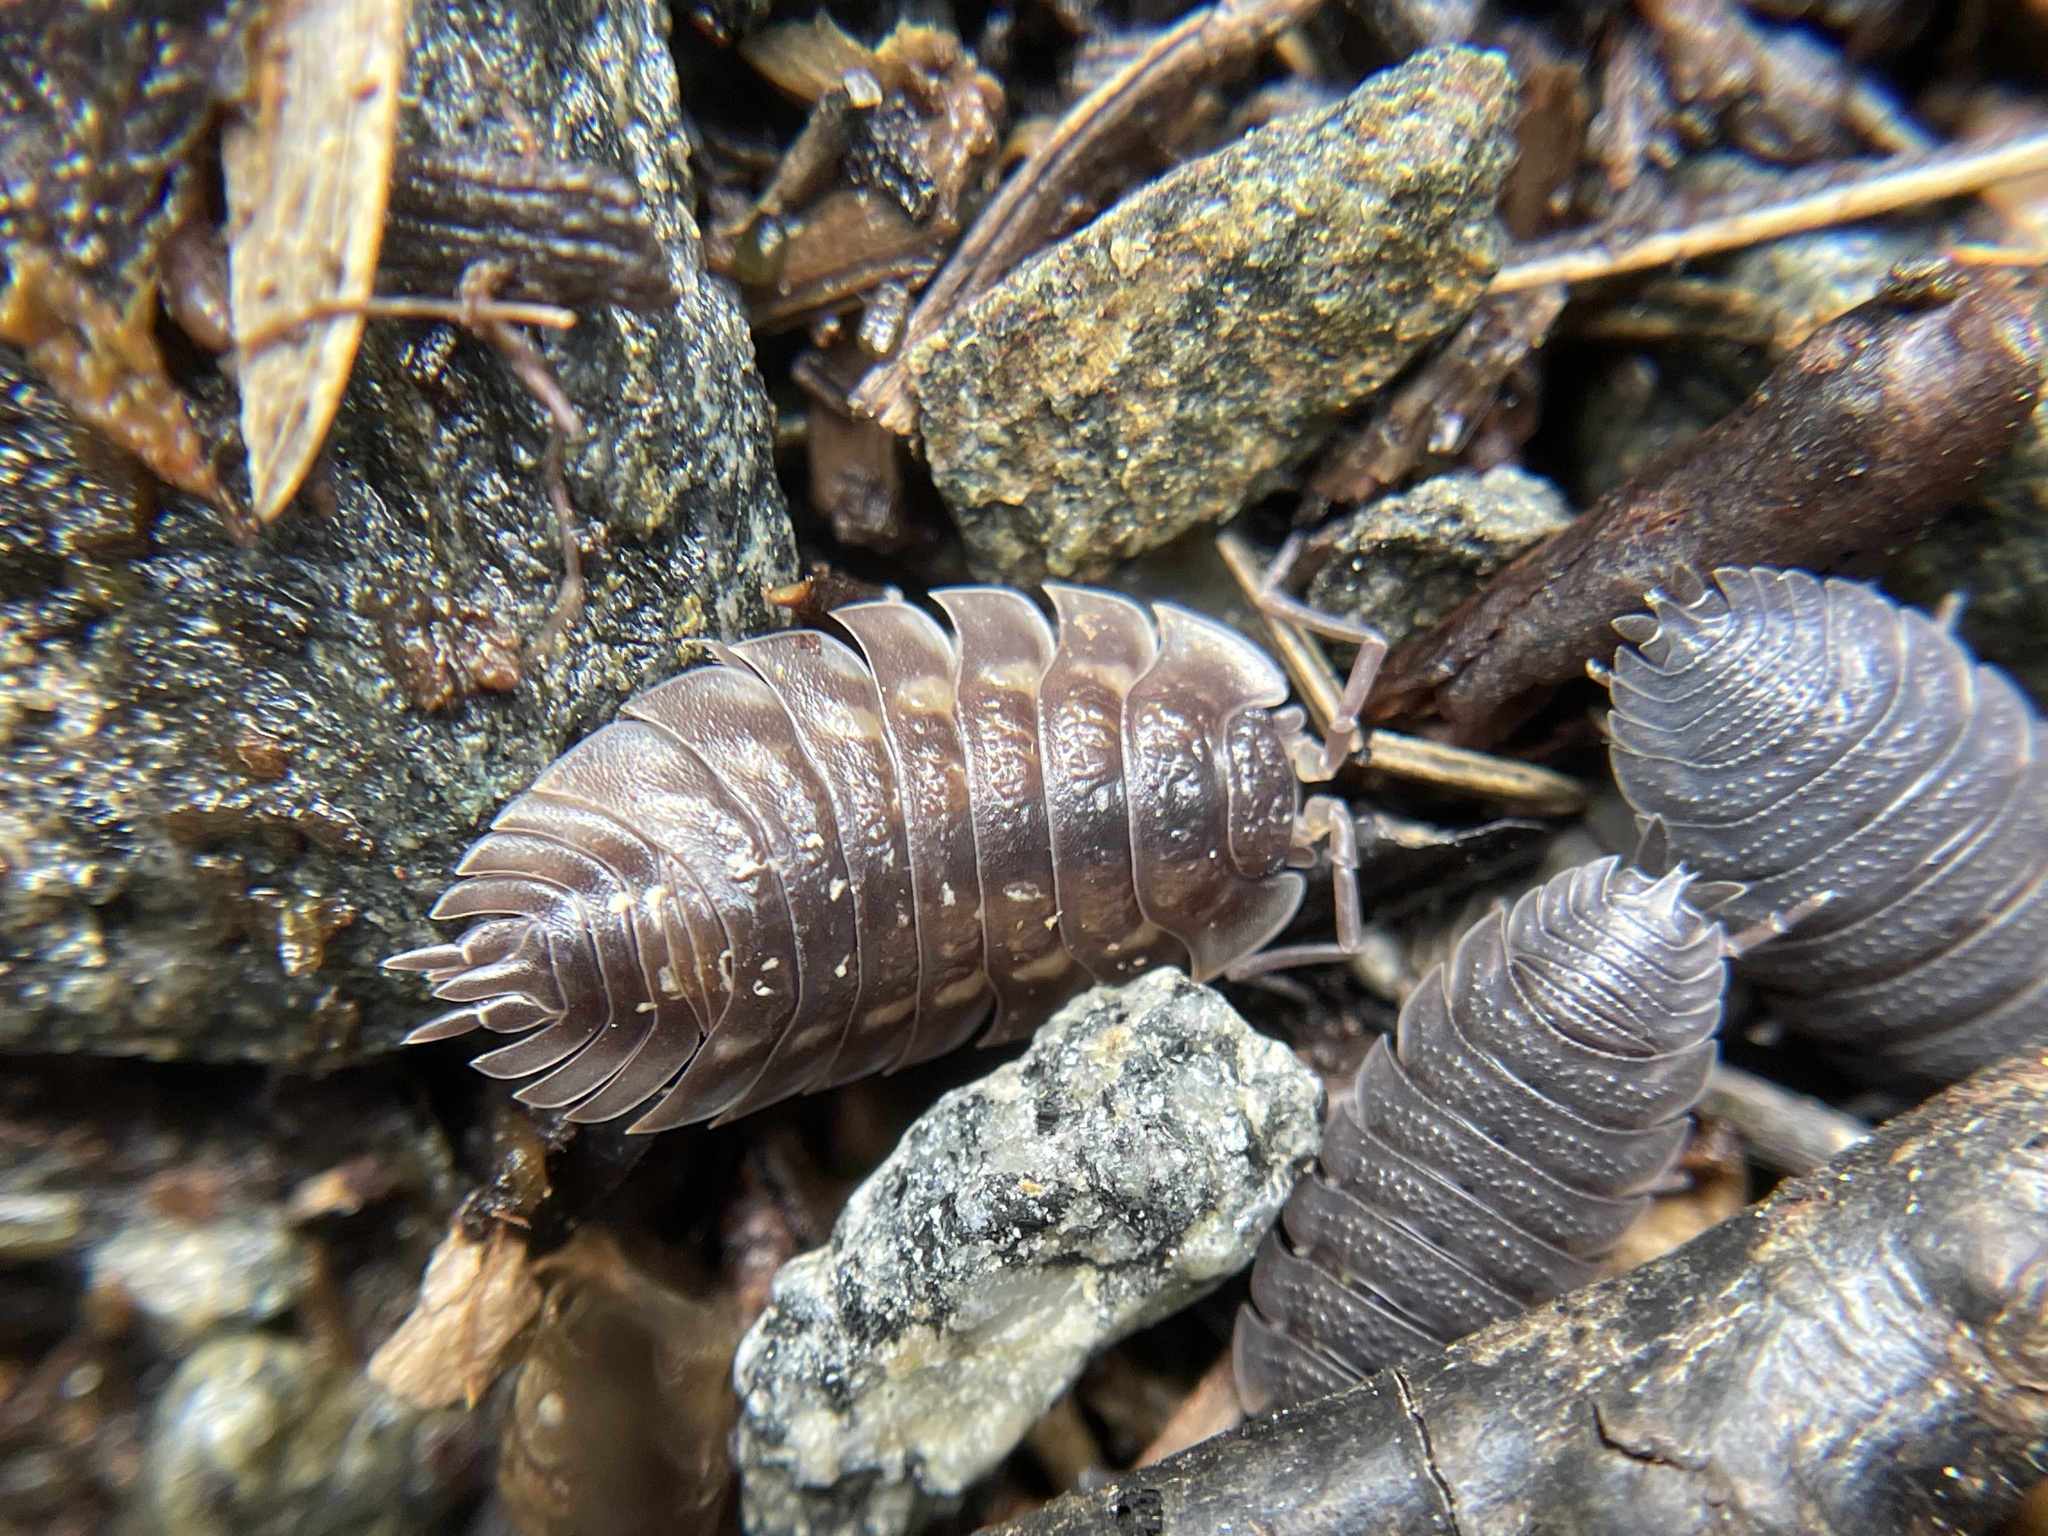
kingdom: Animalia
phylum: Arthropoda
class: Malacostraca
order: Isopoda
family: Oniscidae
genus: Oniscus
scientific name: Oniscus asellus
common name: Common shiny woodlouse
